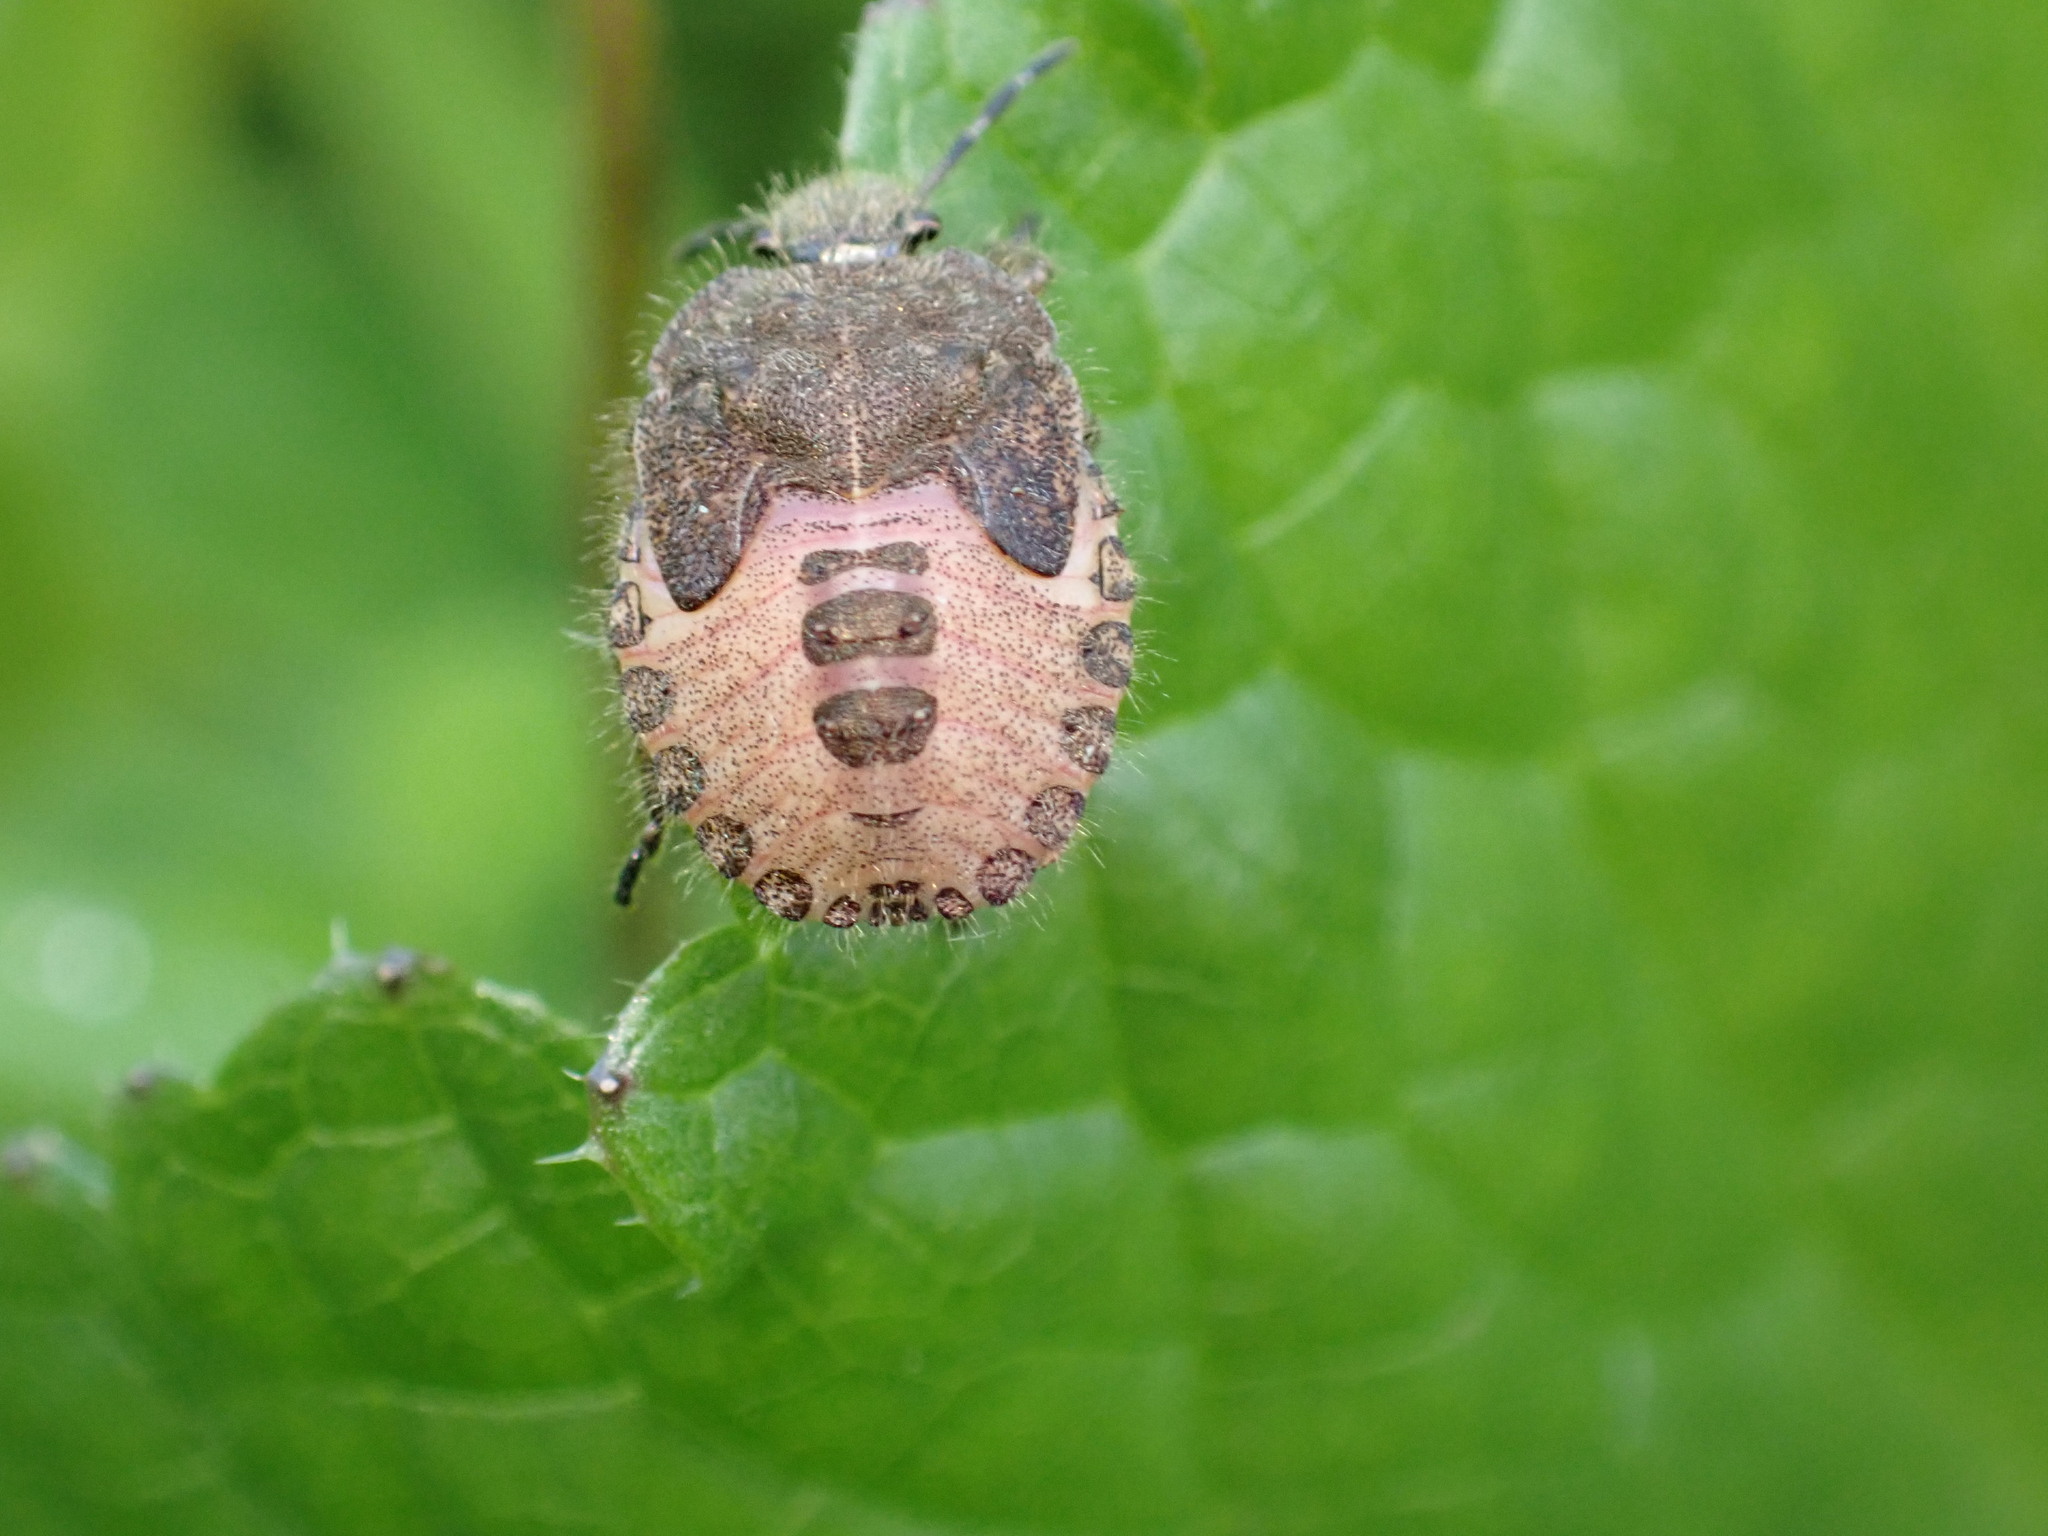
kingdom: Animalia
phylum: Arthropoda
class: Insecta
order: Hemiptera
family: Pentatomidae
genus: Dolycoris
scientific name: Dolycoris baccarum
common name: Sloe bug
